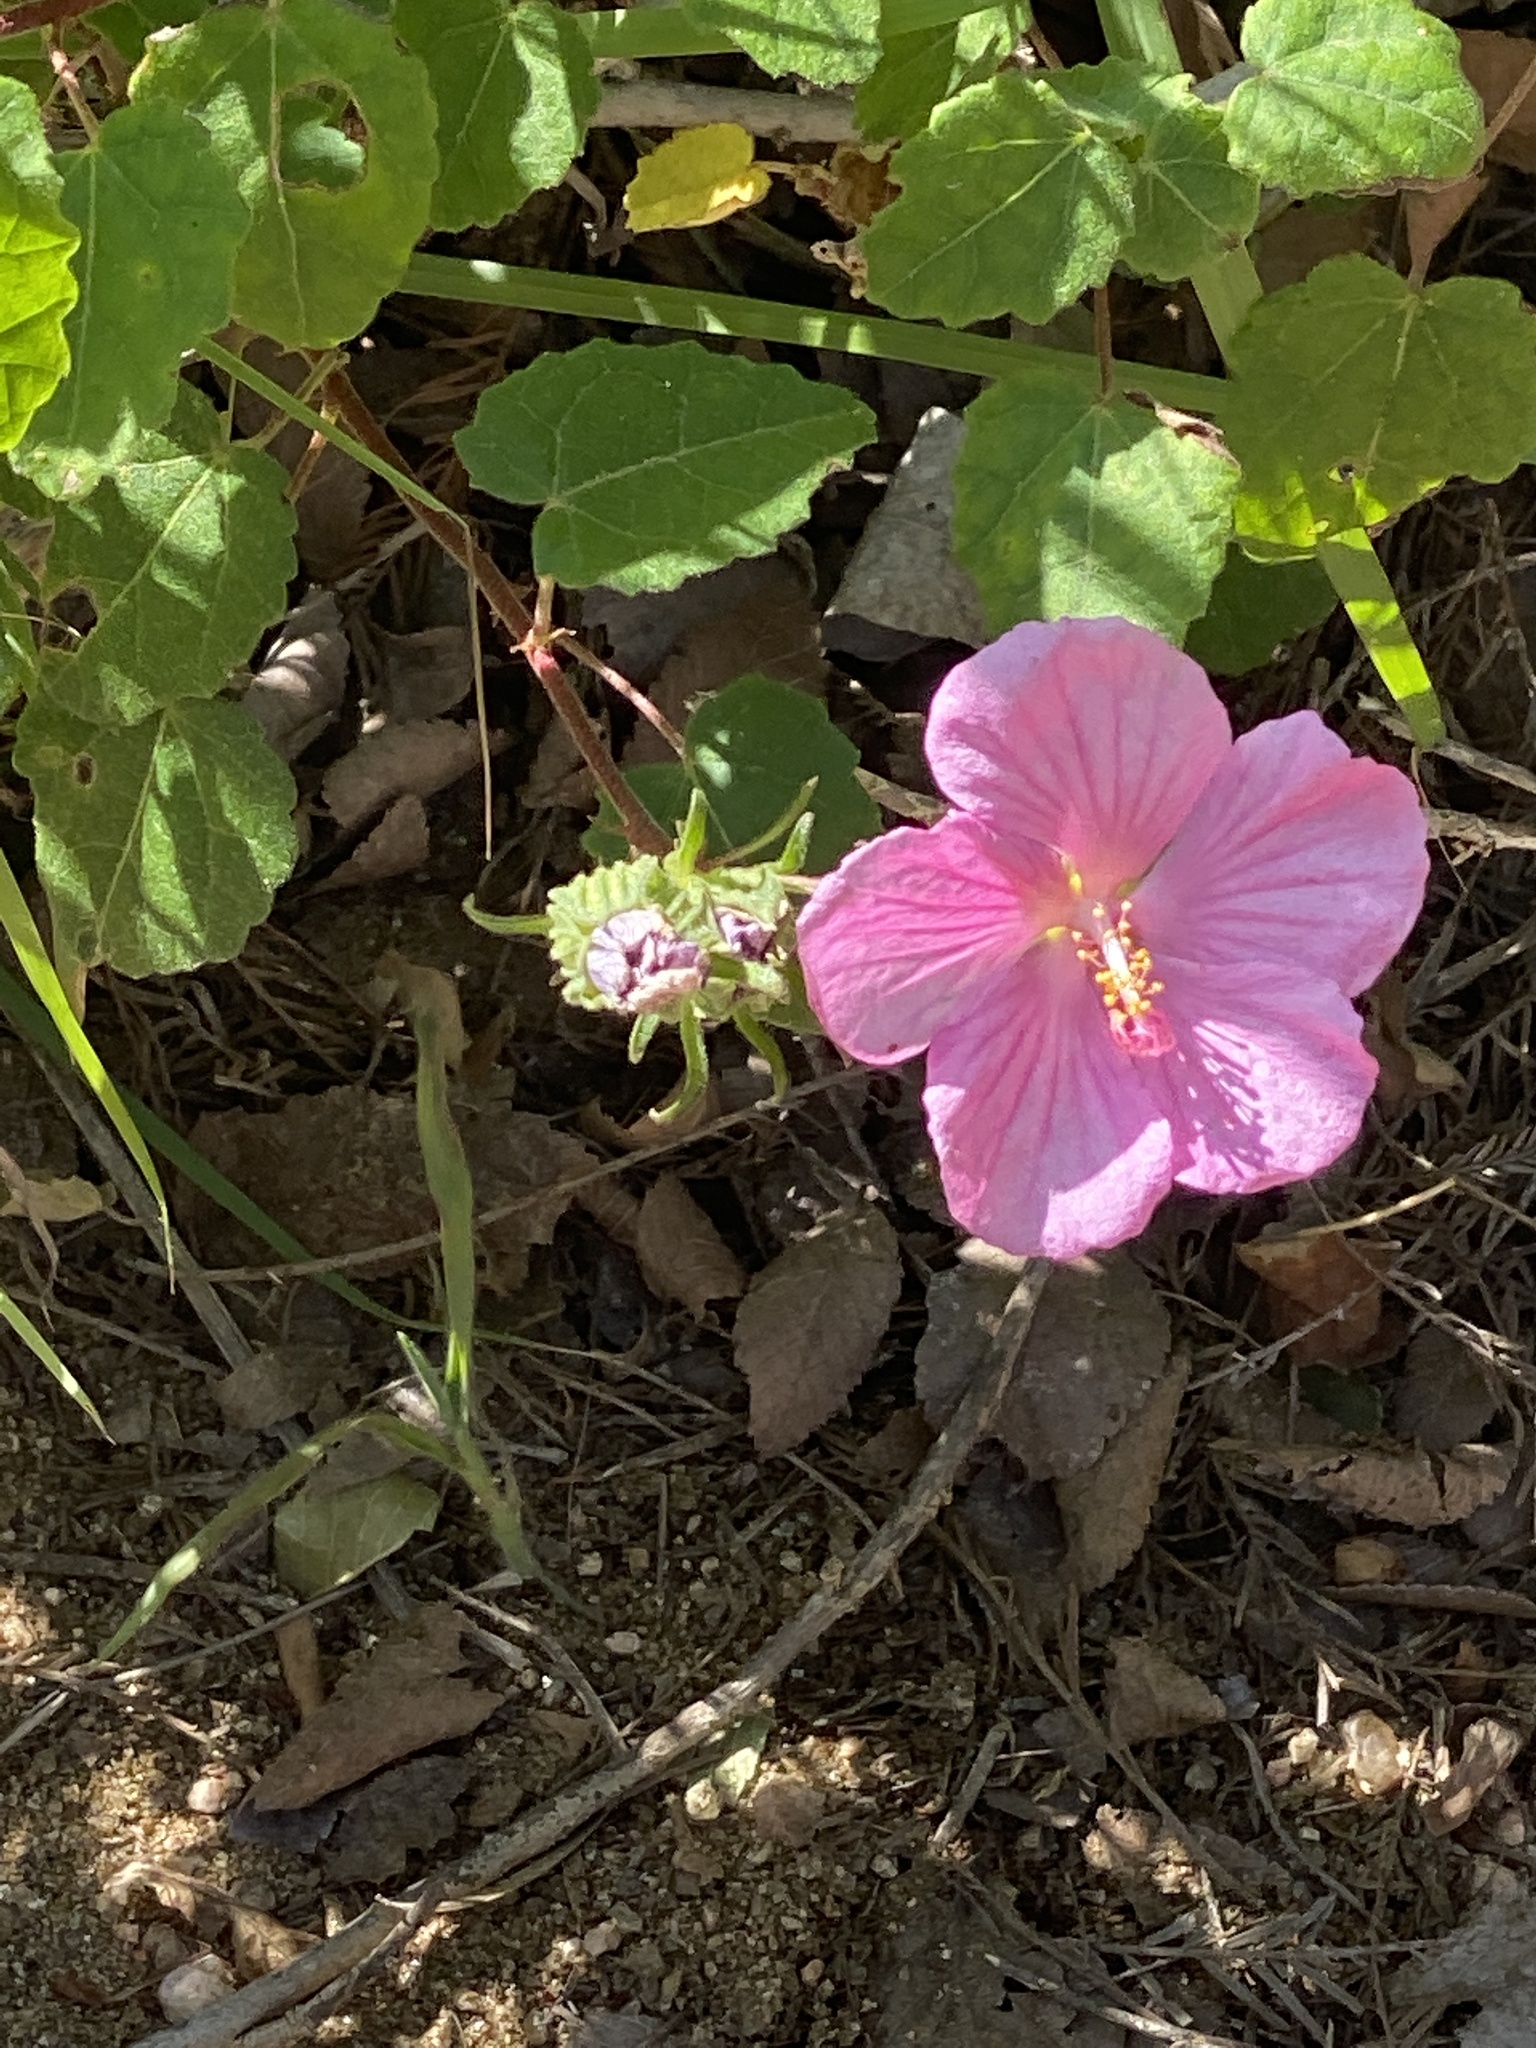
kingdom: Plantae
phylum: Tracheophyta
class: Magnoliopsida
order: Malvales
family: Malvaceae
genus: Pavonia
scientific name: Pavonia lasiopetala
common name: Texas swamp-mallow
